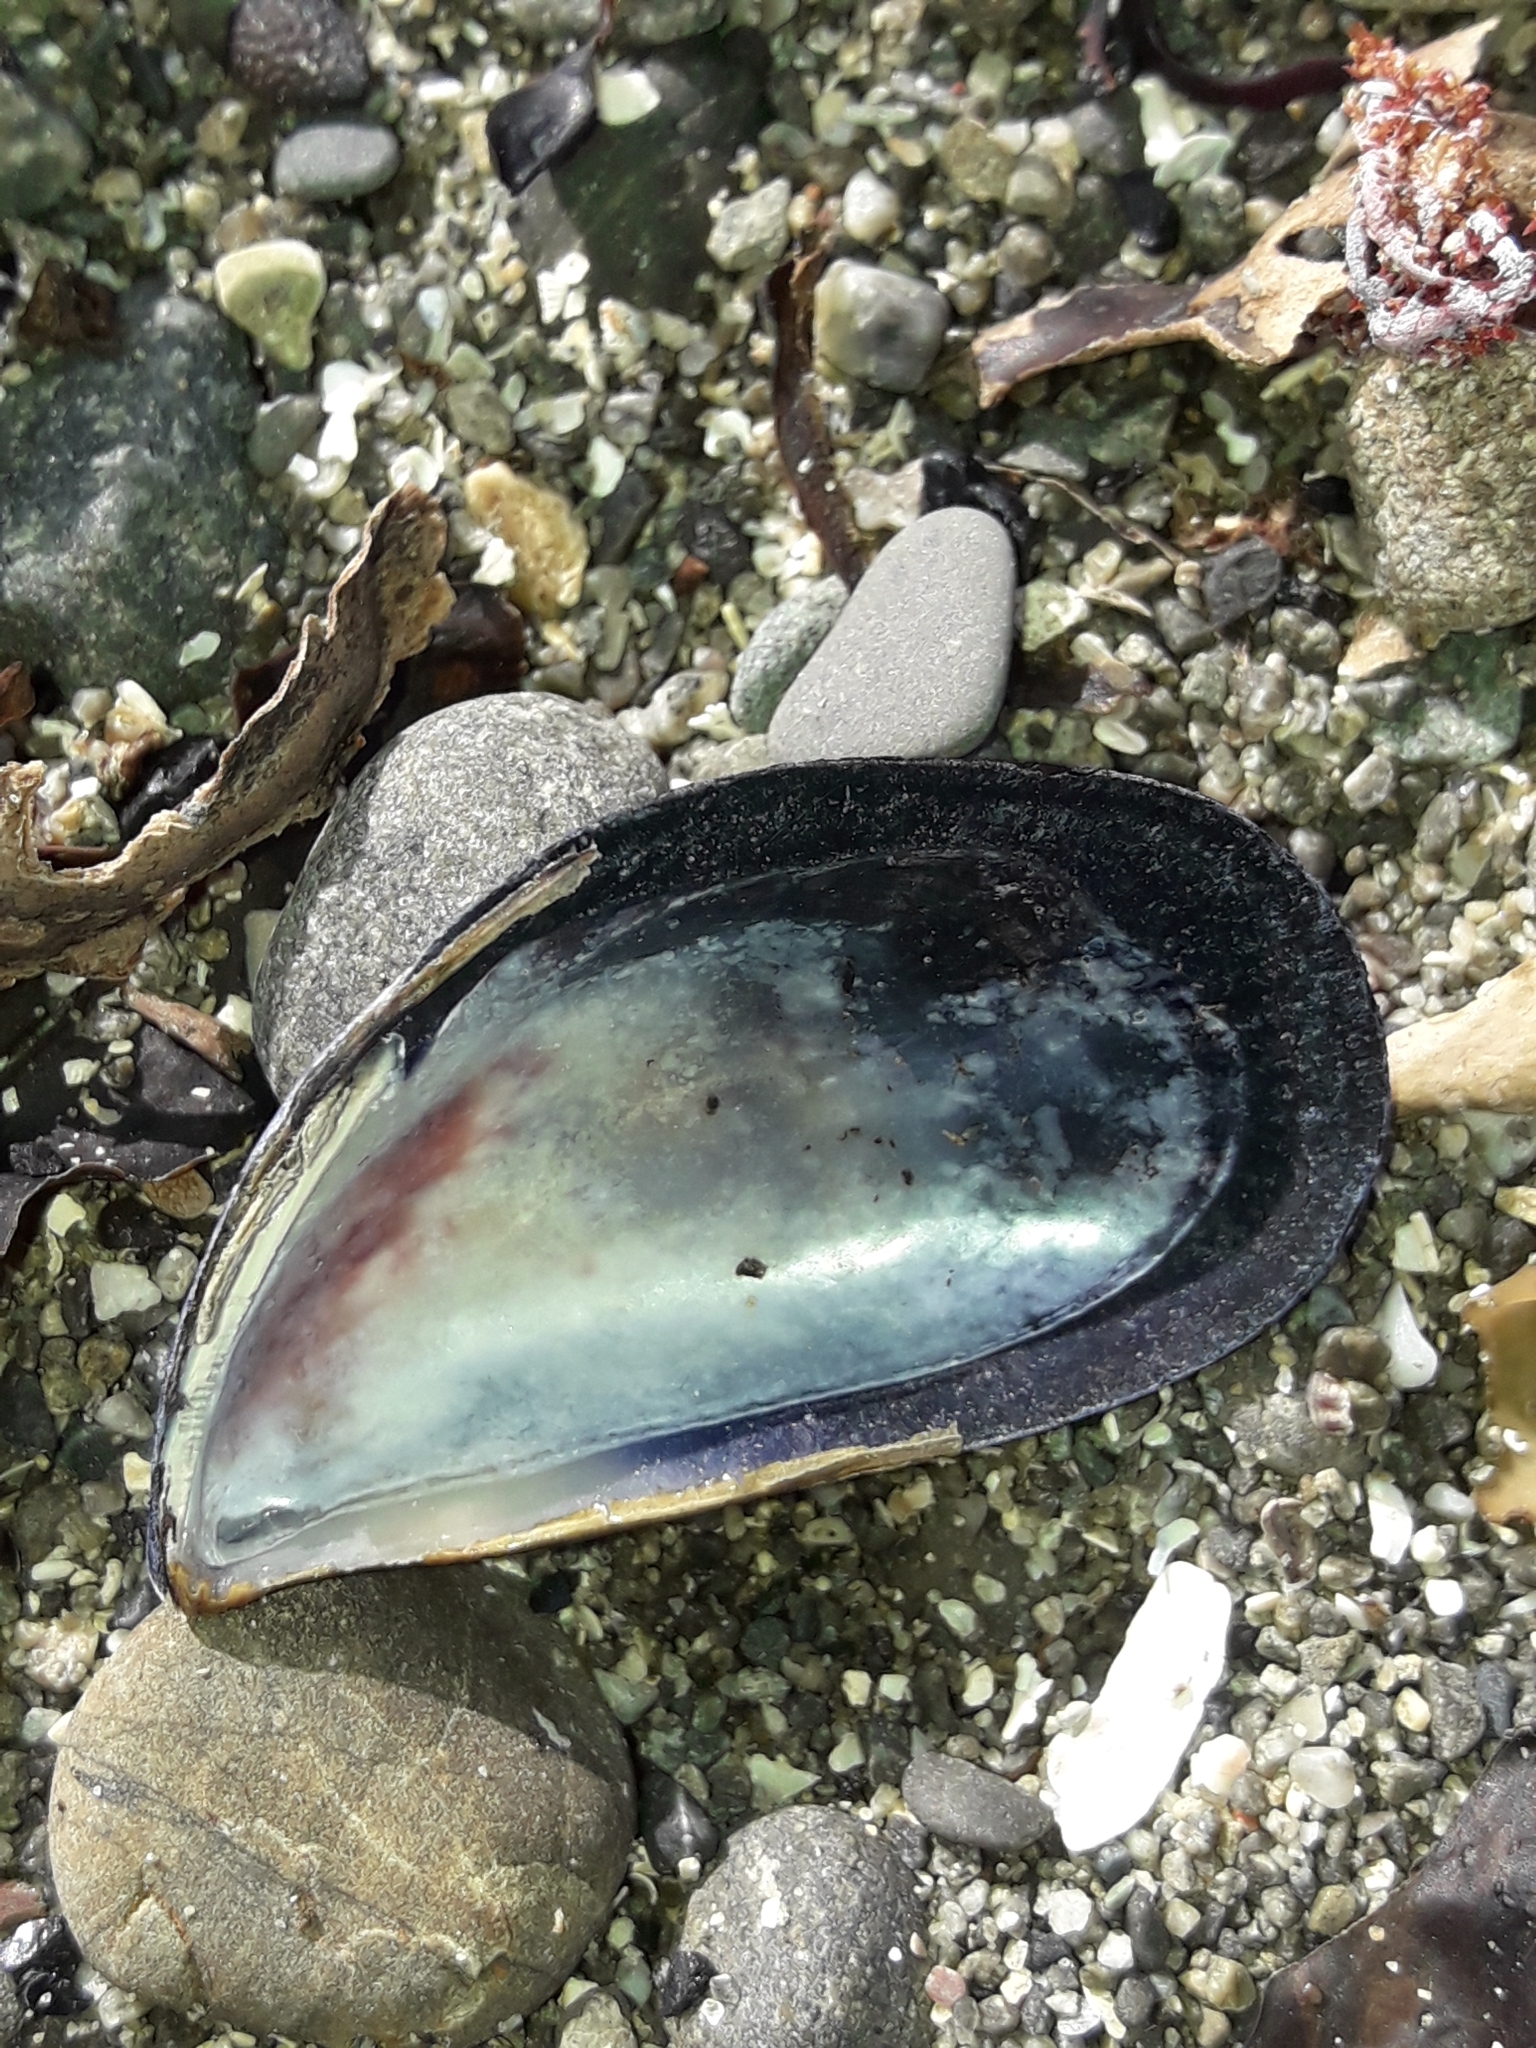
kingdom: Animalia
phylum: Mollusca
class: Bivalvia
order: Mytilida
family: Mytilidae
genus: Mytilus
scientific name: Mytilus planulatus
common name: Australian mussel
